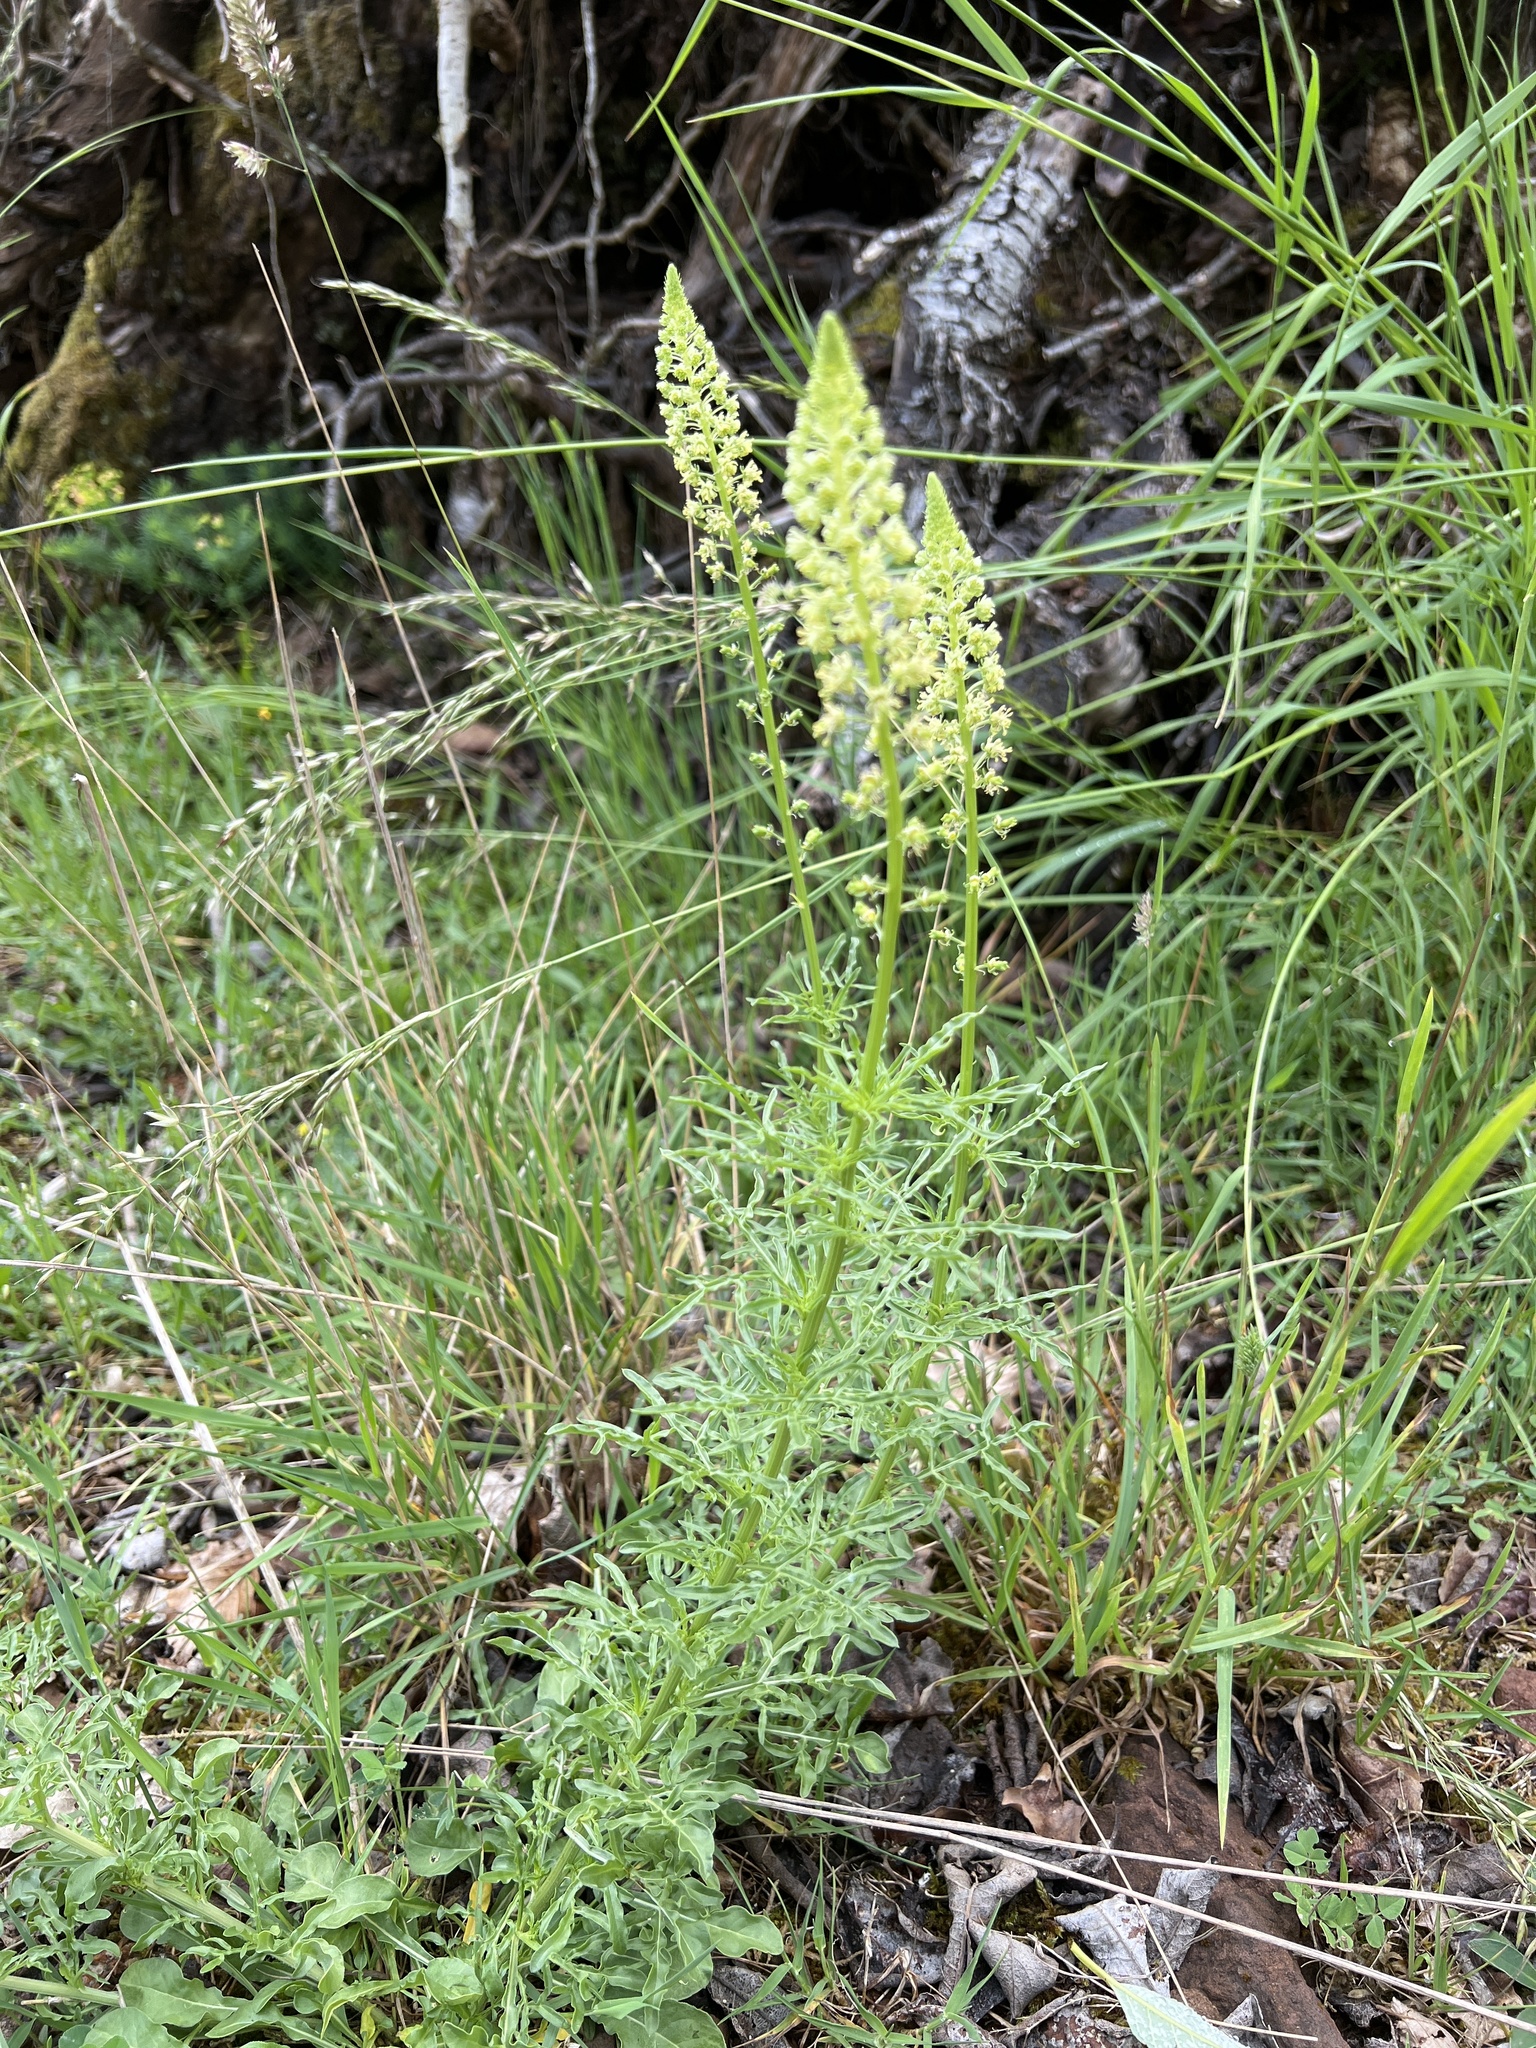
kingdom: Plantae
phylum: Tracheophyta
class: Magnoliopsida
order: Brassicales
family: Resedaceae
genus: Reseda
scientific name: Reseda lutea
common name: Wild mignonette
